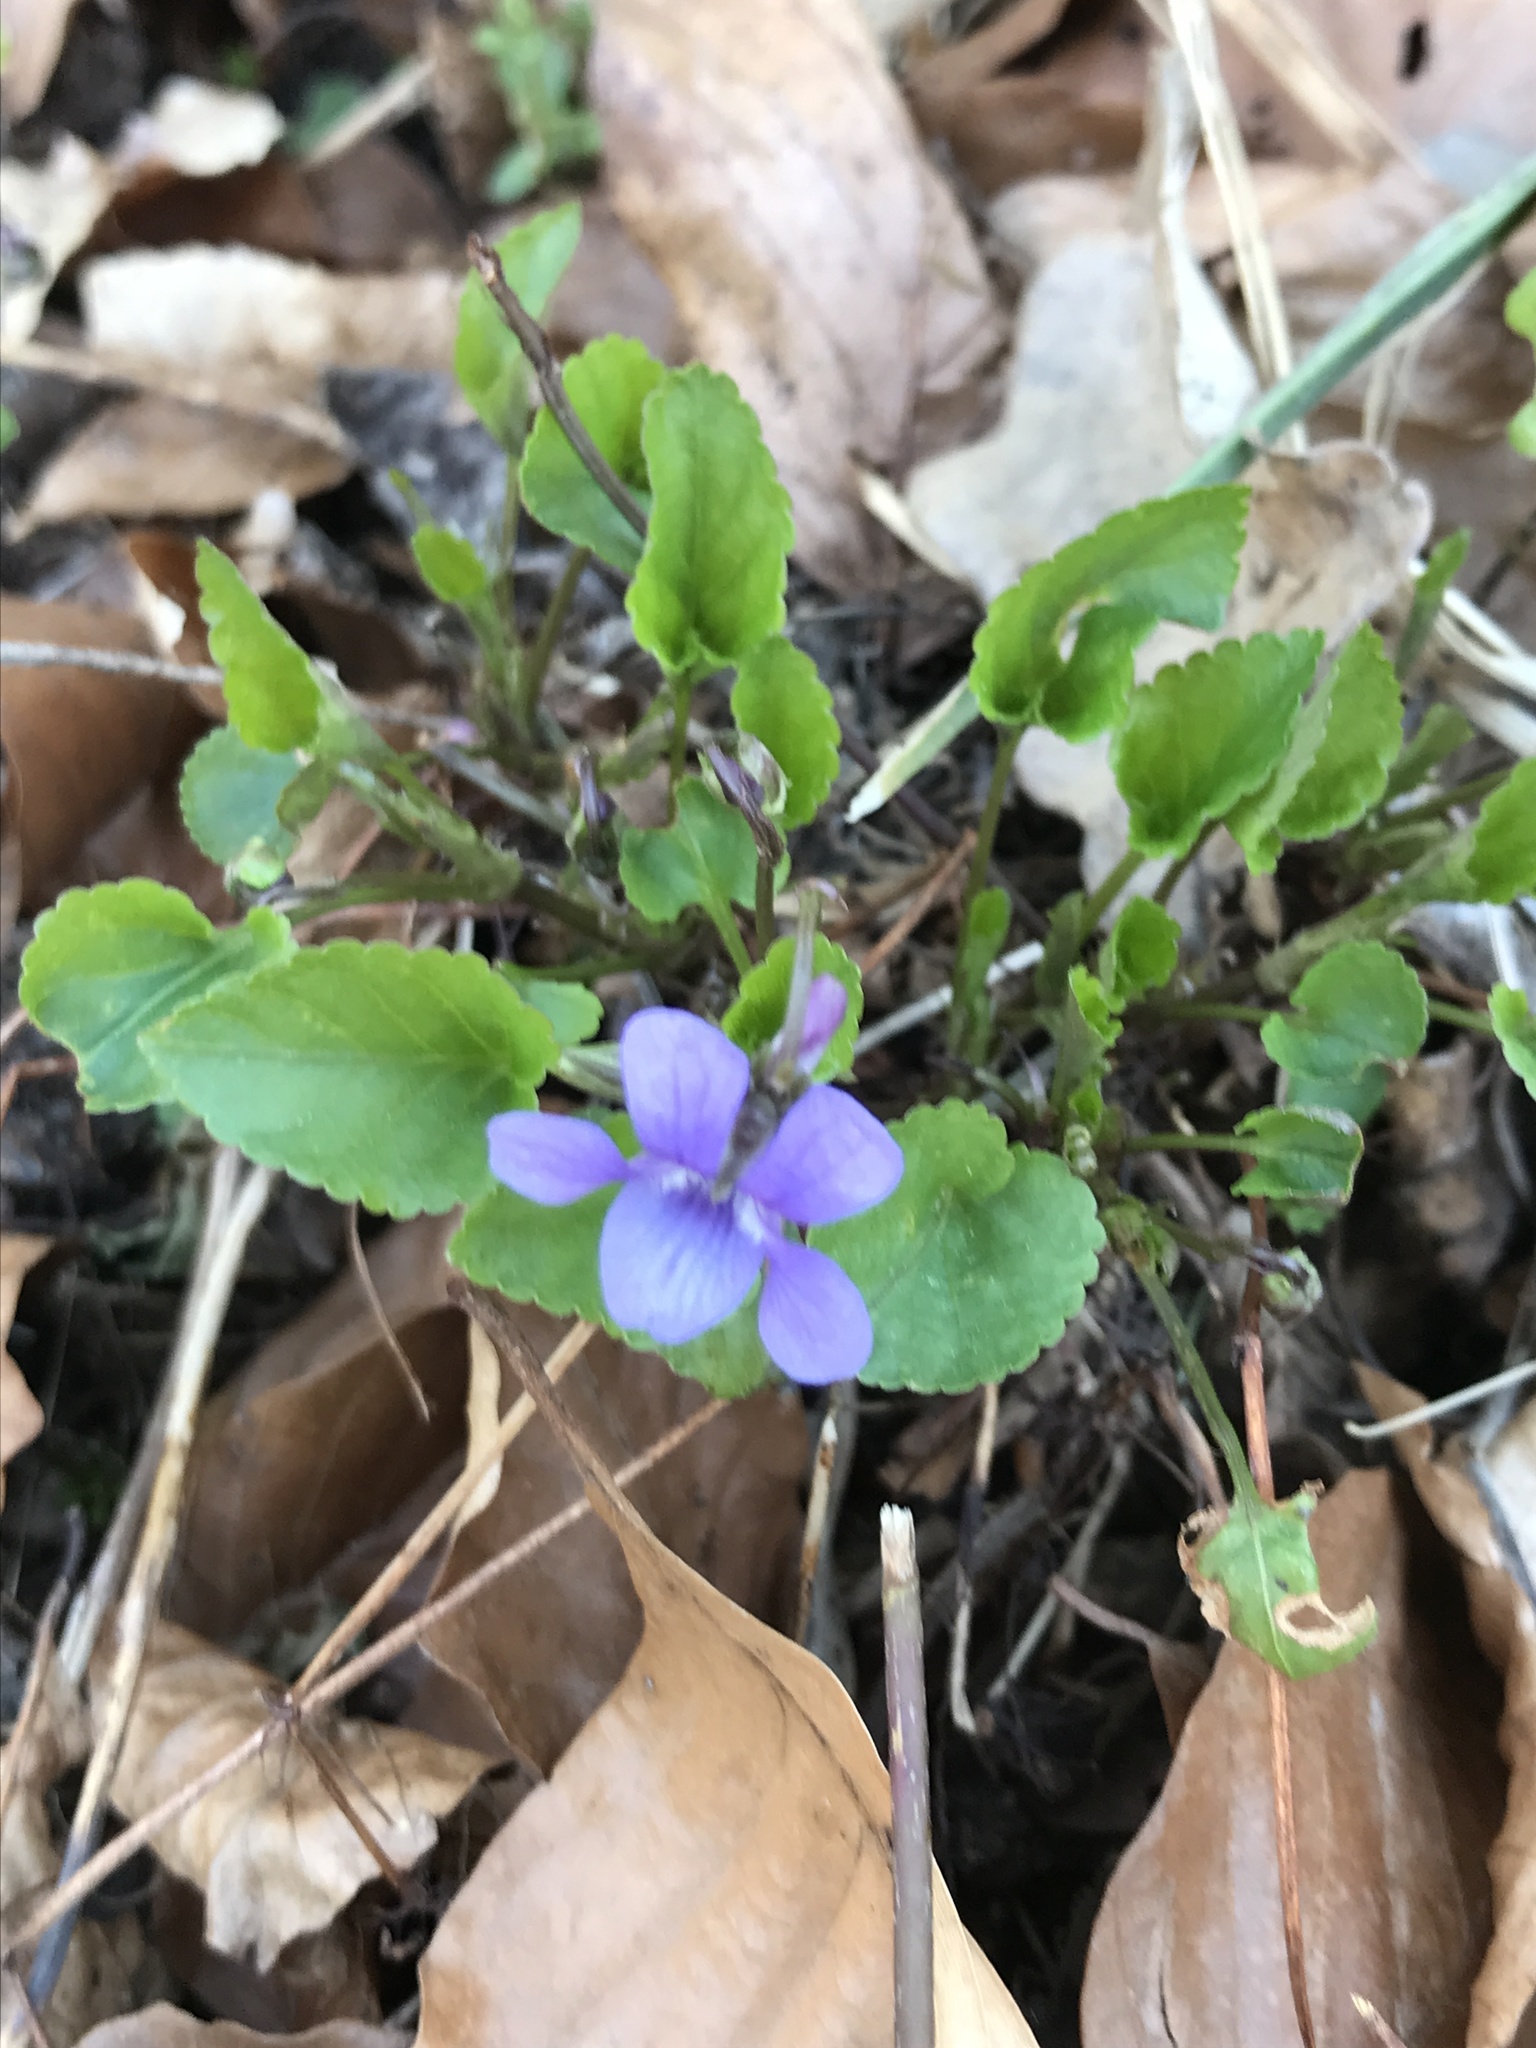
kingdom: Plantae
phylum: Tracheophyta
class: Magnoliopsida
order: Malpighiales
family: Violaceae
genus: Viola
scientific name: Viola reichenbachiana
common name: Early dog-violet
